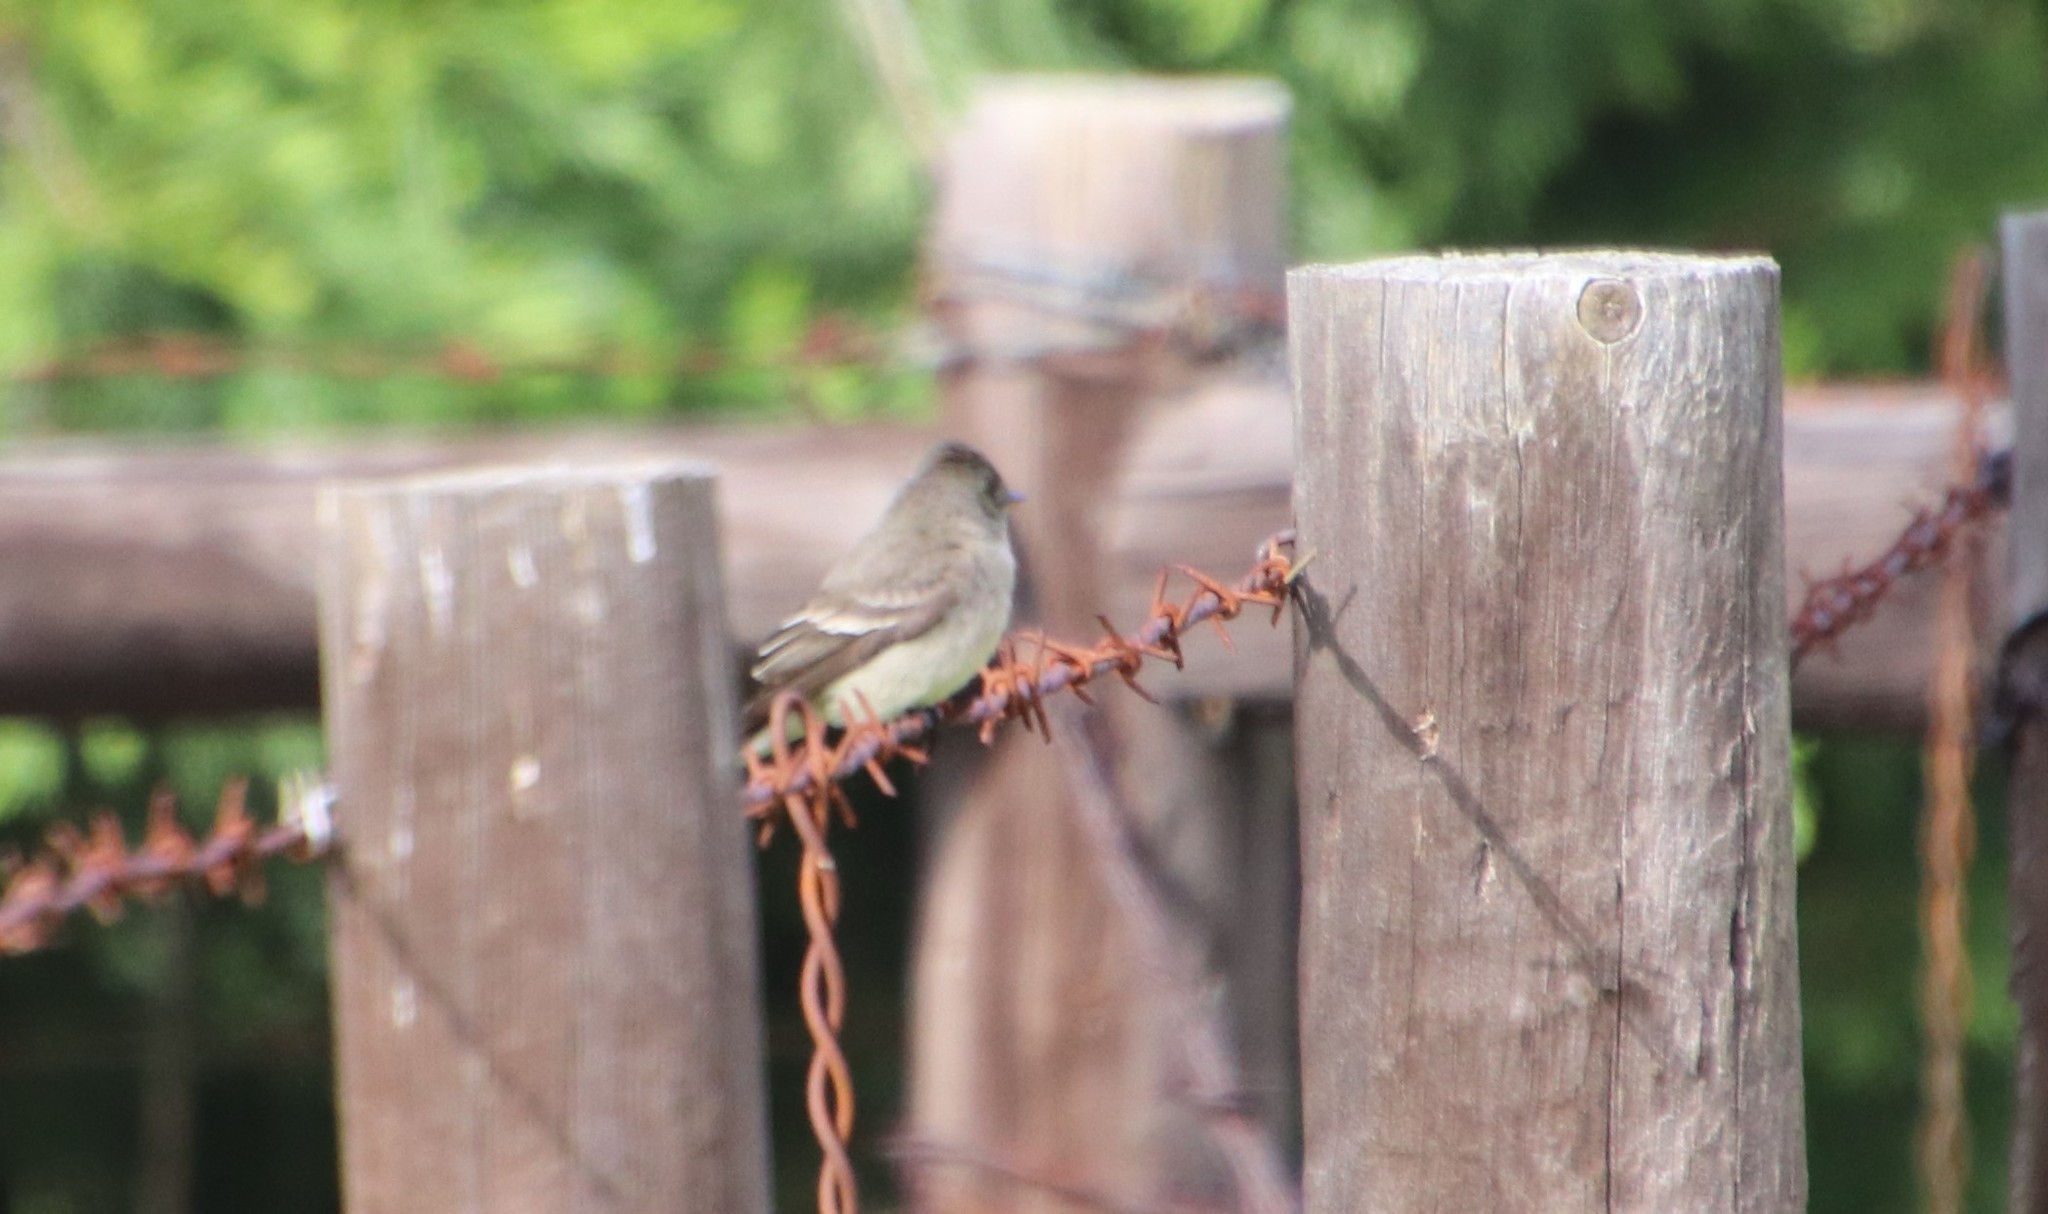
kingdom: Animalia
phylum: Chordata
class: Aves
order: Passeriformes
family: Tyrannidae
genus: Contopus
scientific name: Contopus sordidulus
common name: Western wood-pewee
